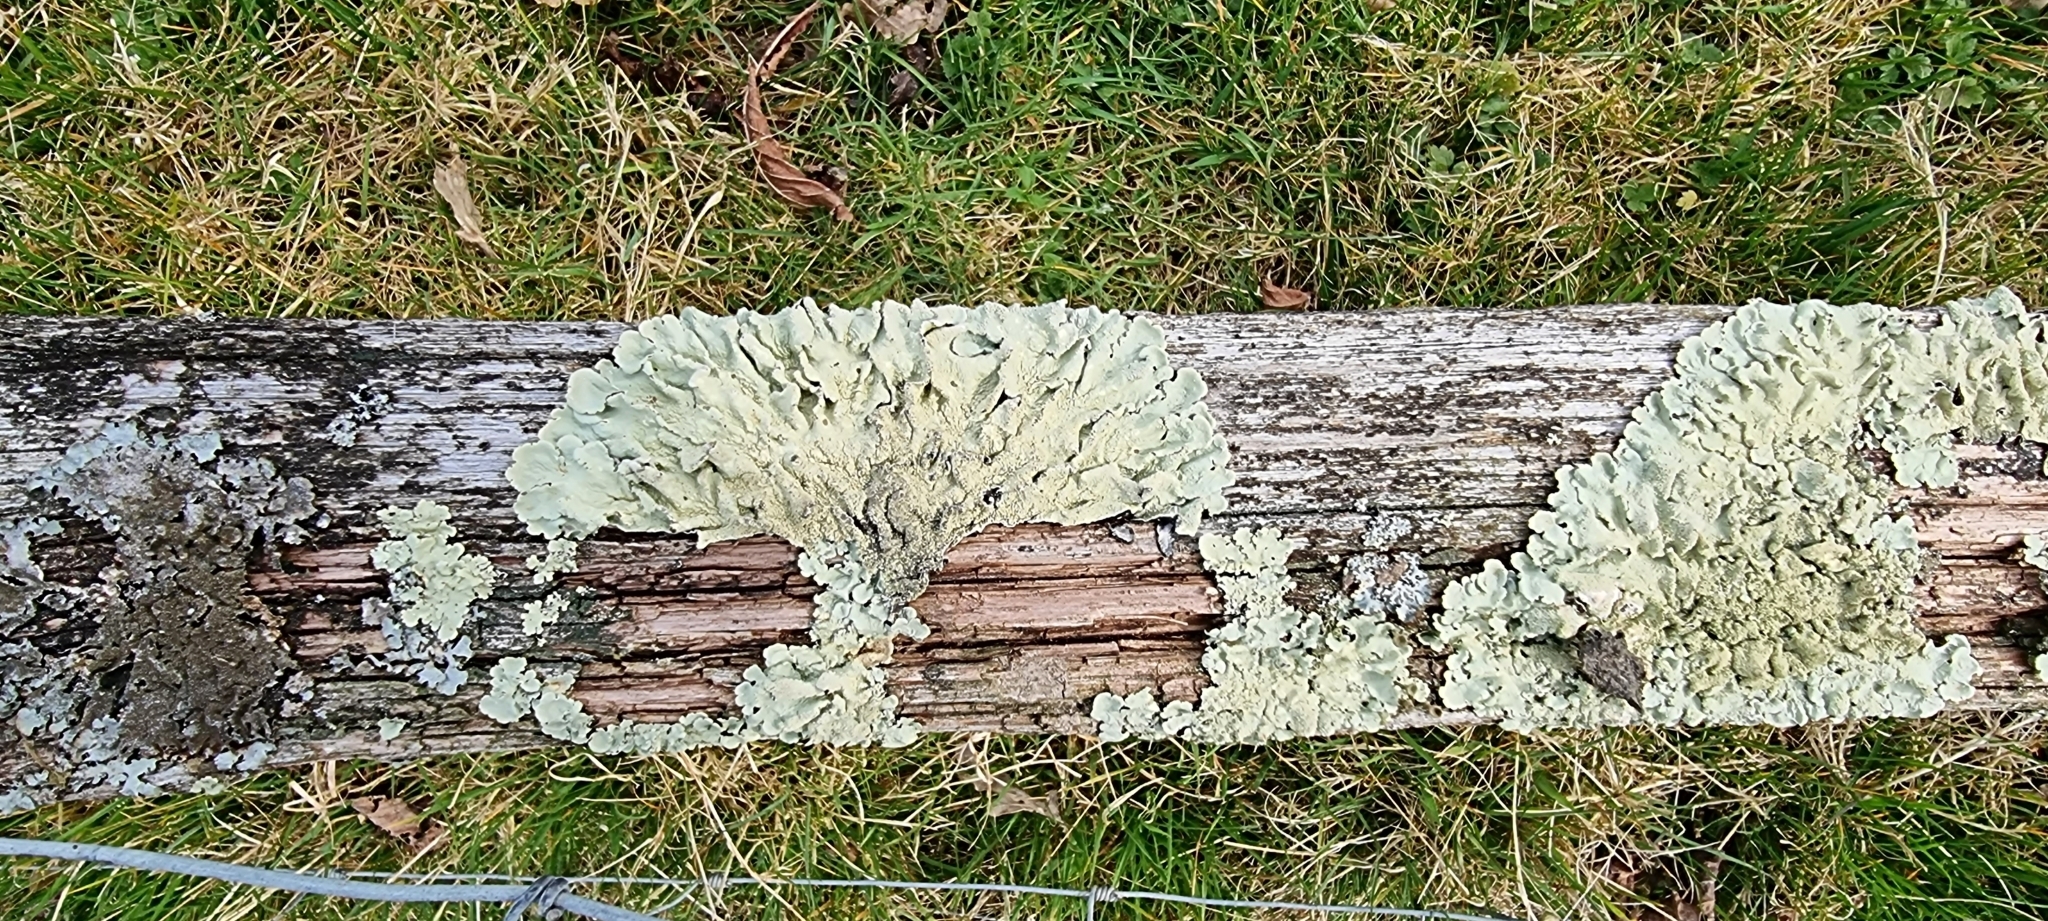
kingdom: Fungi
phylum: Ascomycota
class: Lecanoromycetes
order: Lecanorales
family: Parmeliaceae
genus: Flavoparmelia
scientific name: Flavoparmelia caperata
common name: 40-mile per hour lichen
